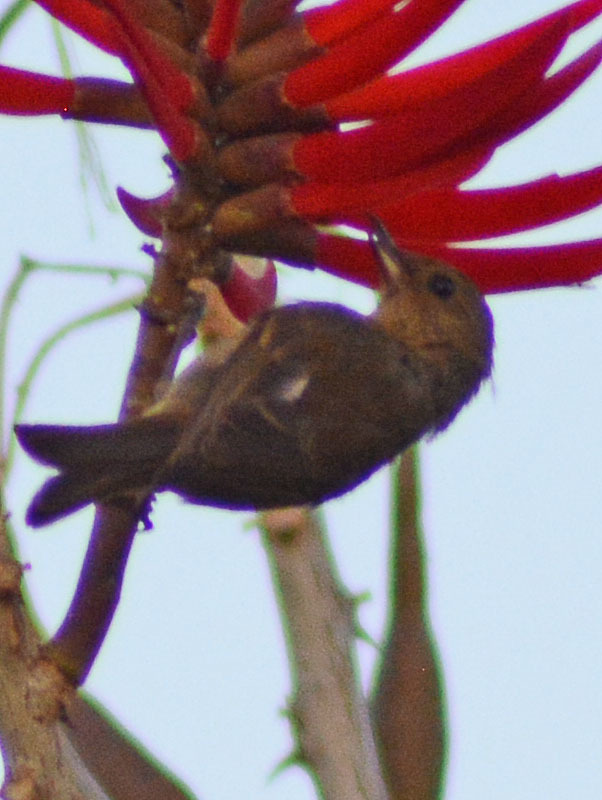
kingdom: Animalia
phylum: Chordata
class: Aves
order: Passeriformes
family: Thraupidae
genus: Diglossa
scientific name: Diglossa baritula
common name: Cinnamon-bellied flowerpiercer
